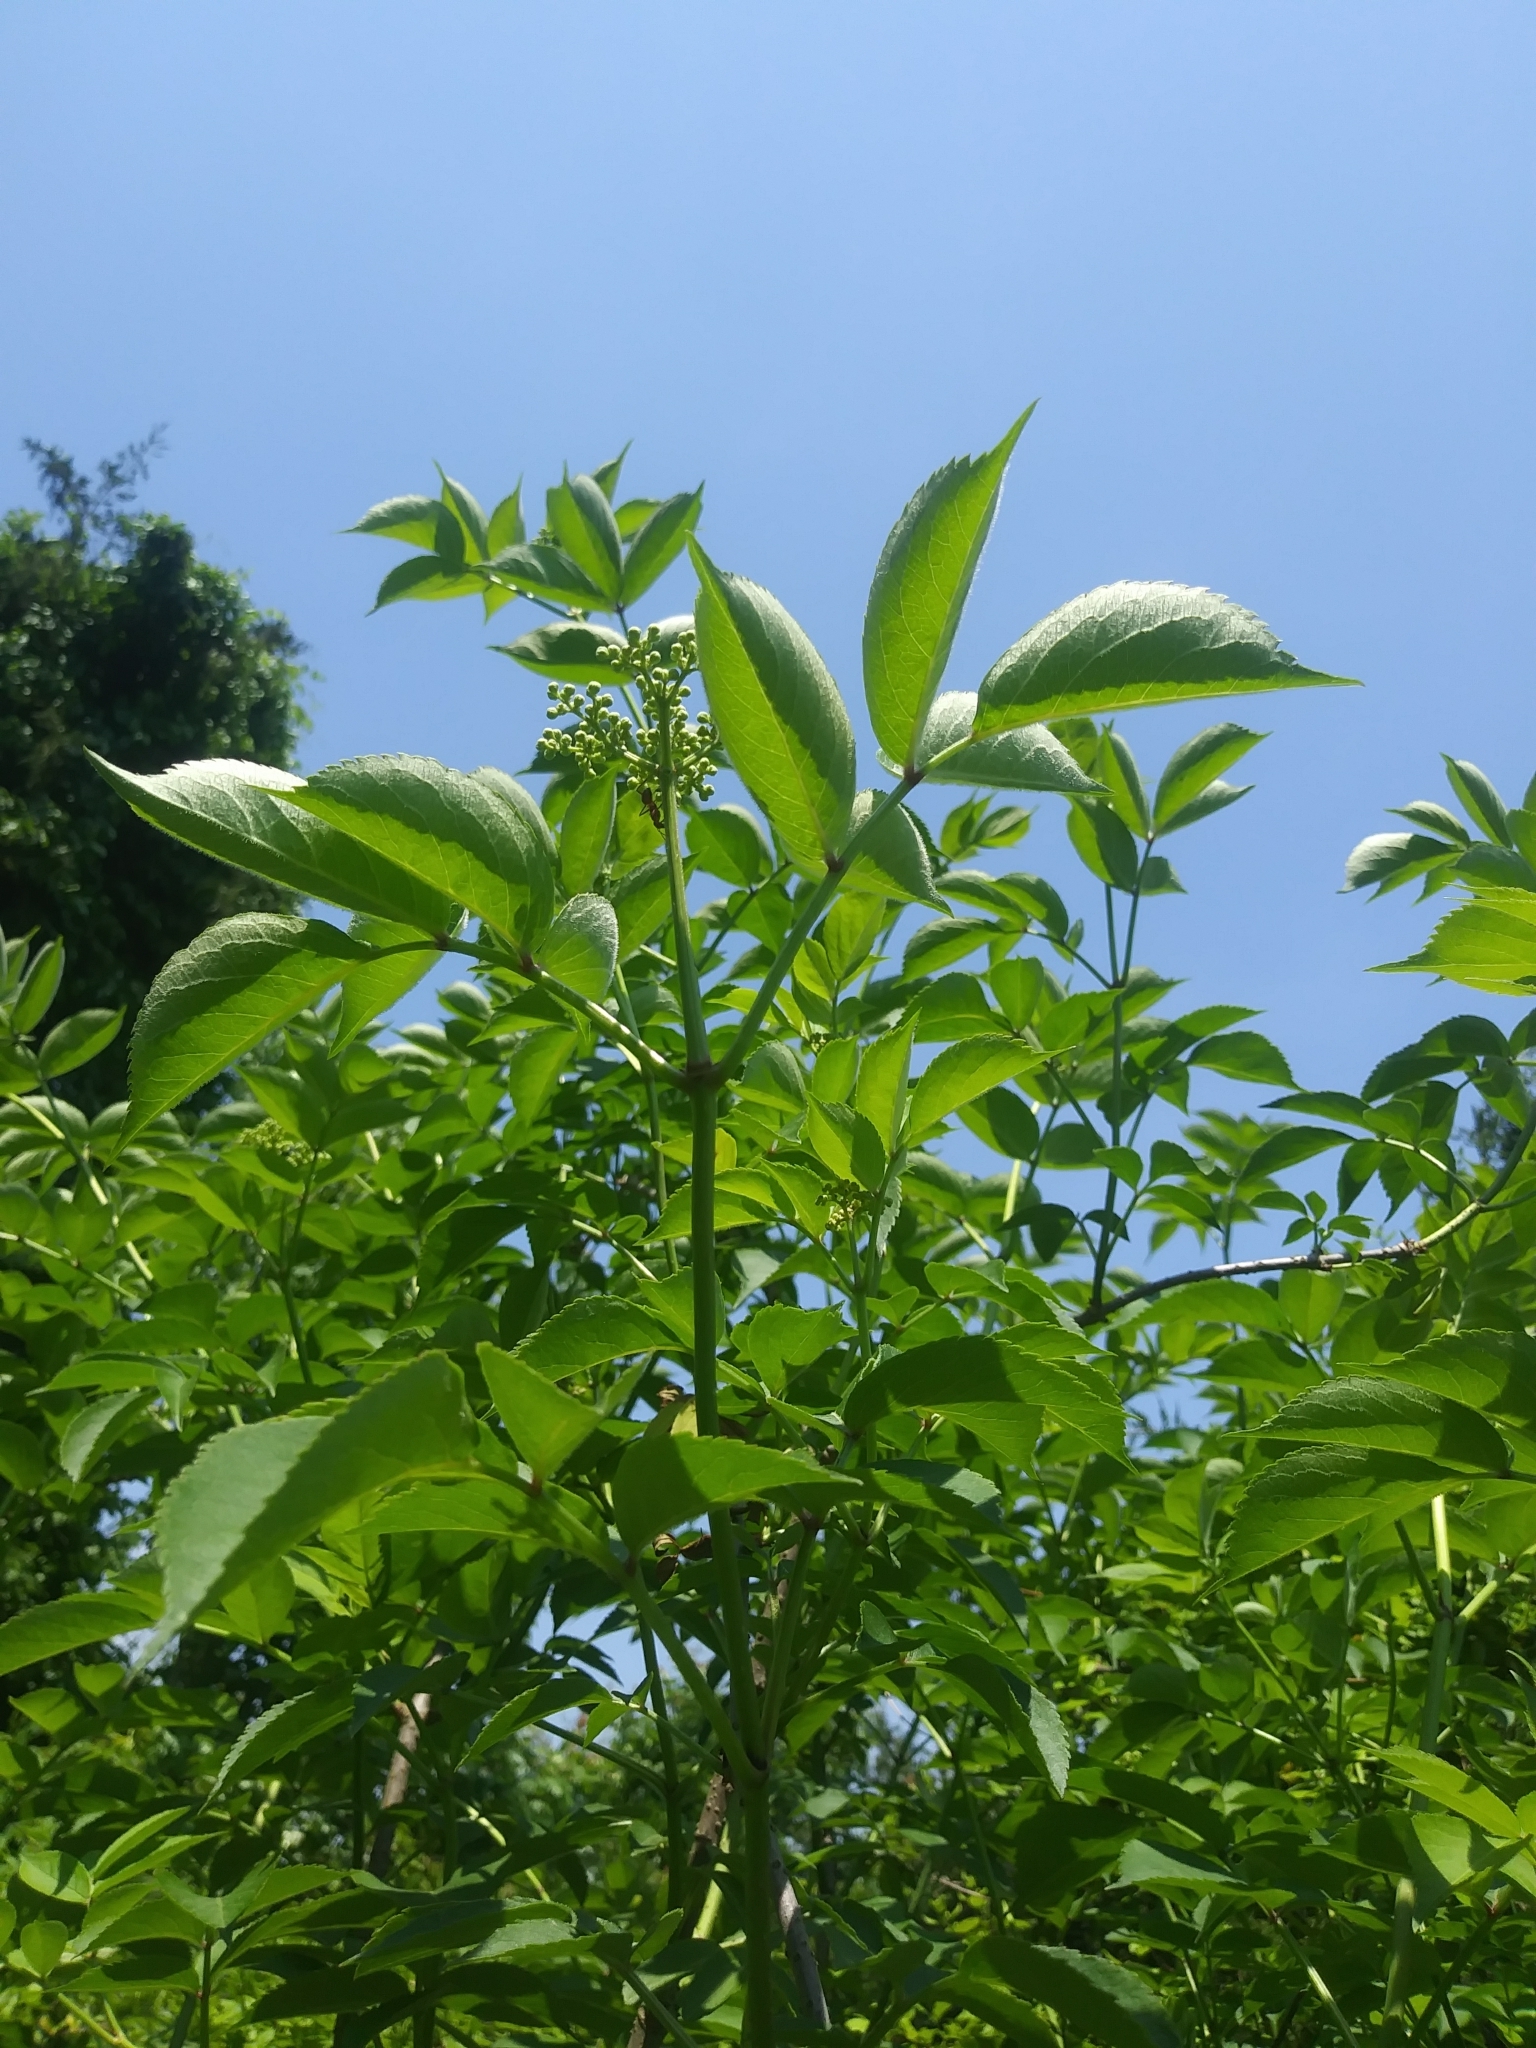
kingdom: Plantae
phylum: Tracheophyta
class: Magnoliopsida
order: Dipsacales
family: Viburnaceae
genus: Sambucus
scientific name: Sambucus canadensis
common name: American elder
